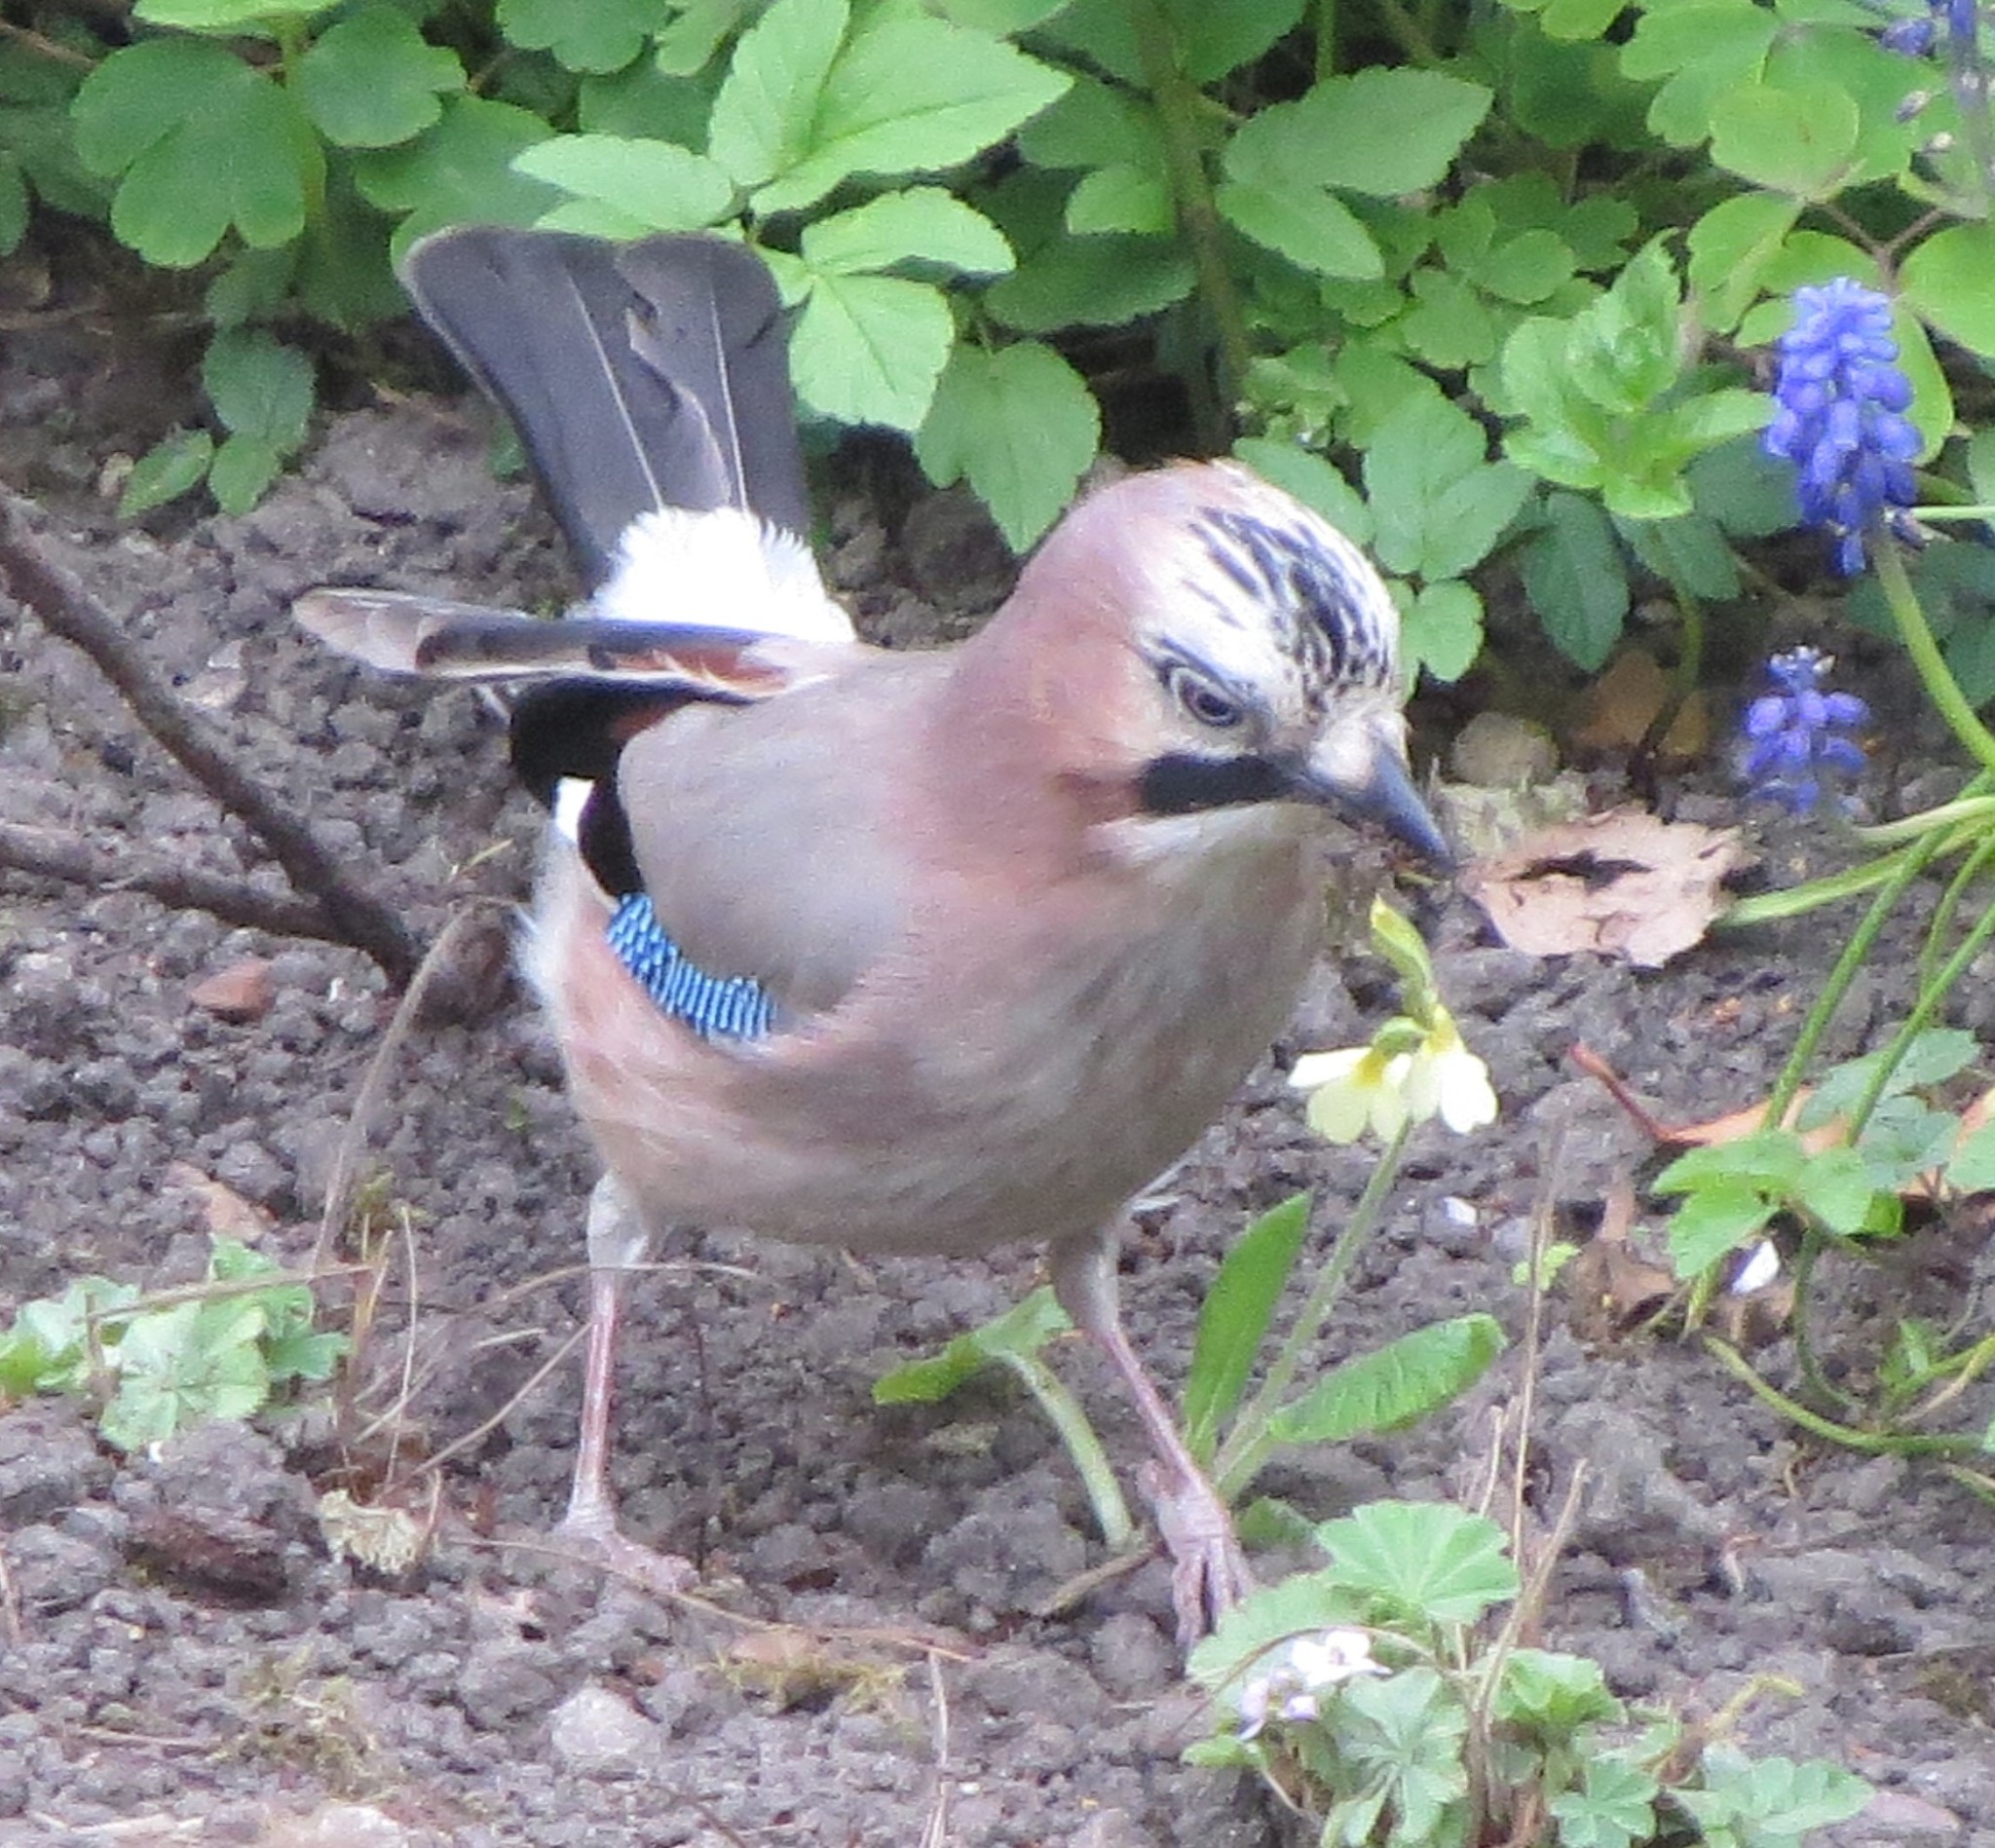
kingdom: Animalia
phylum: Chordata
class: Aves
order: Passeriformes
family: Corvidae
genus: Garrulus
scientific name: Garrulus glandarius
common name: Eurasian jay
